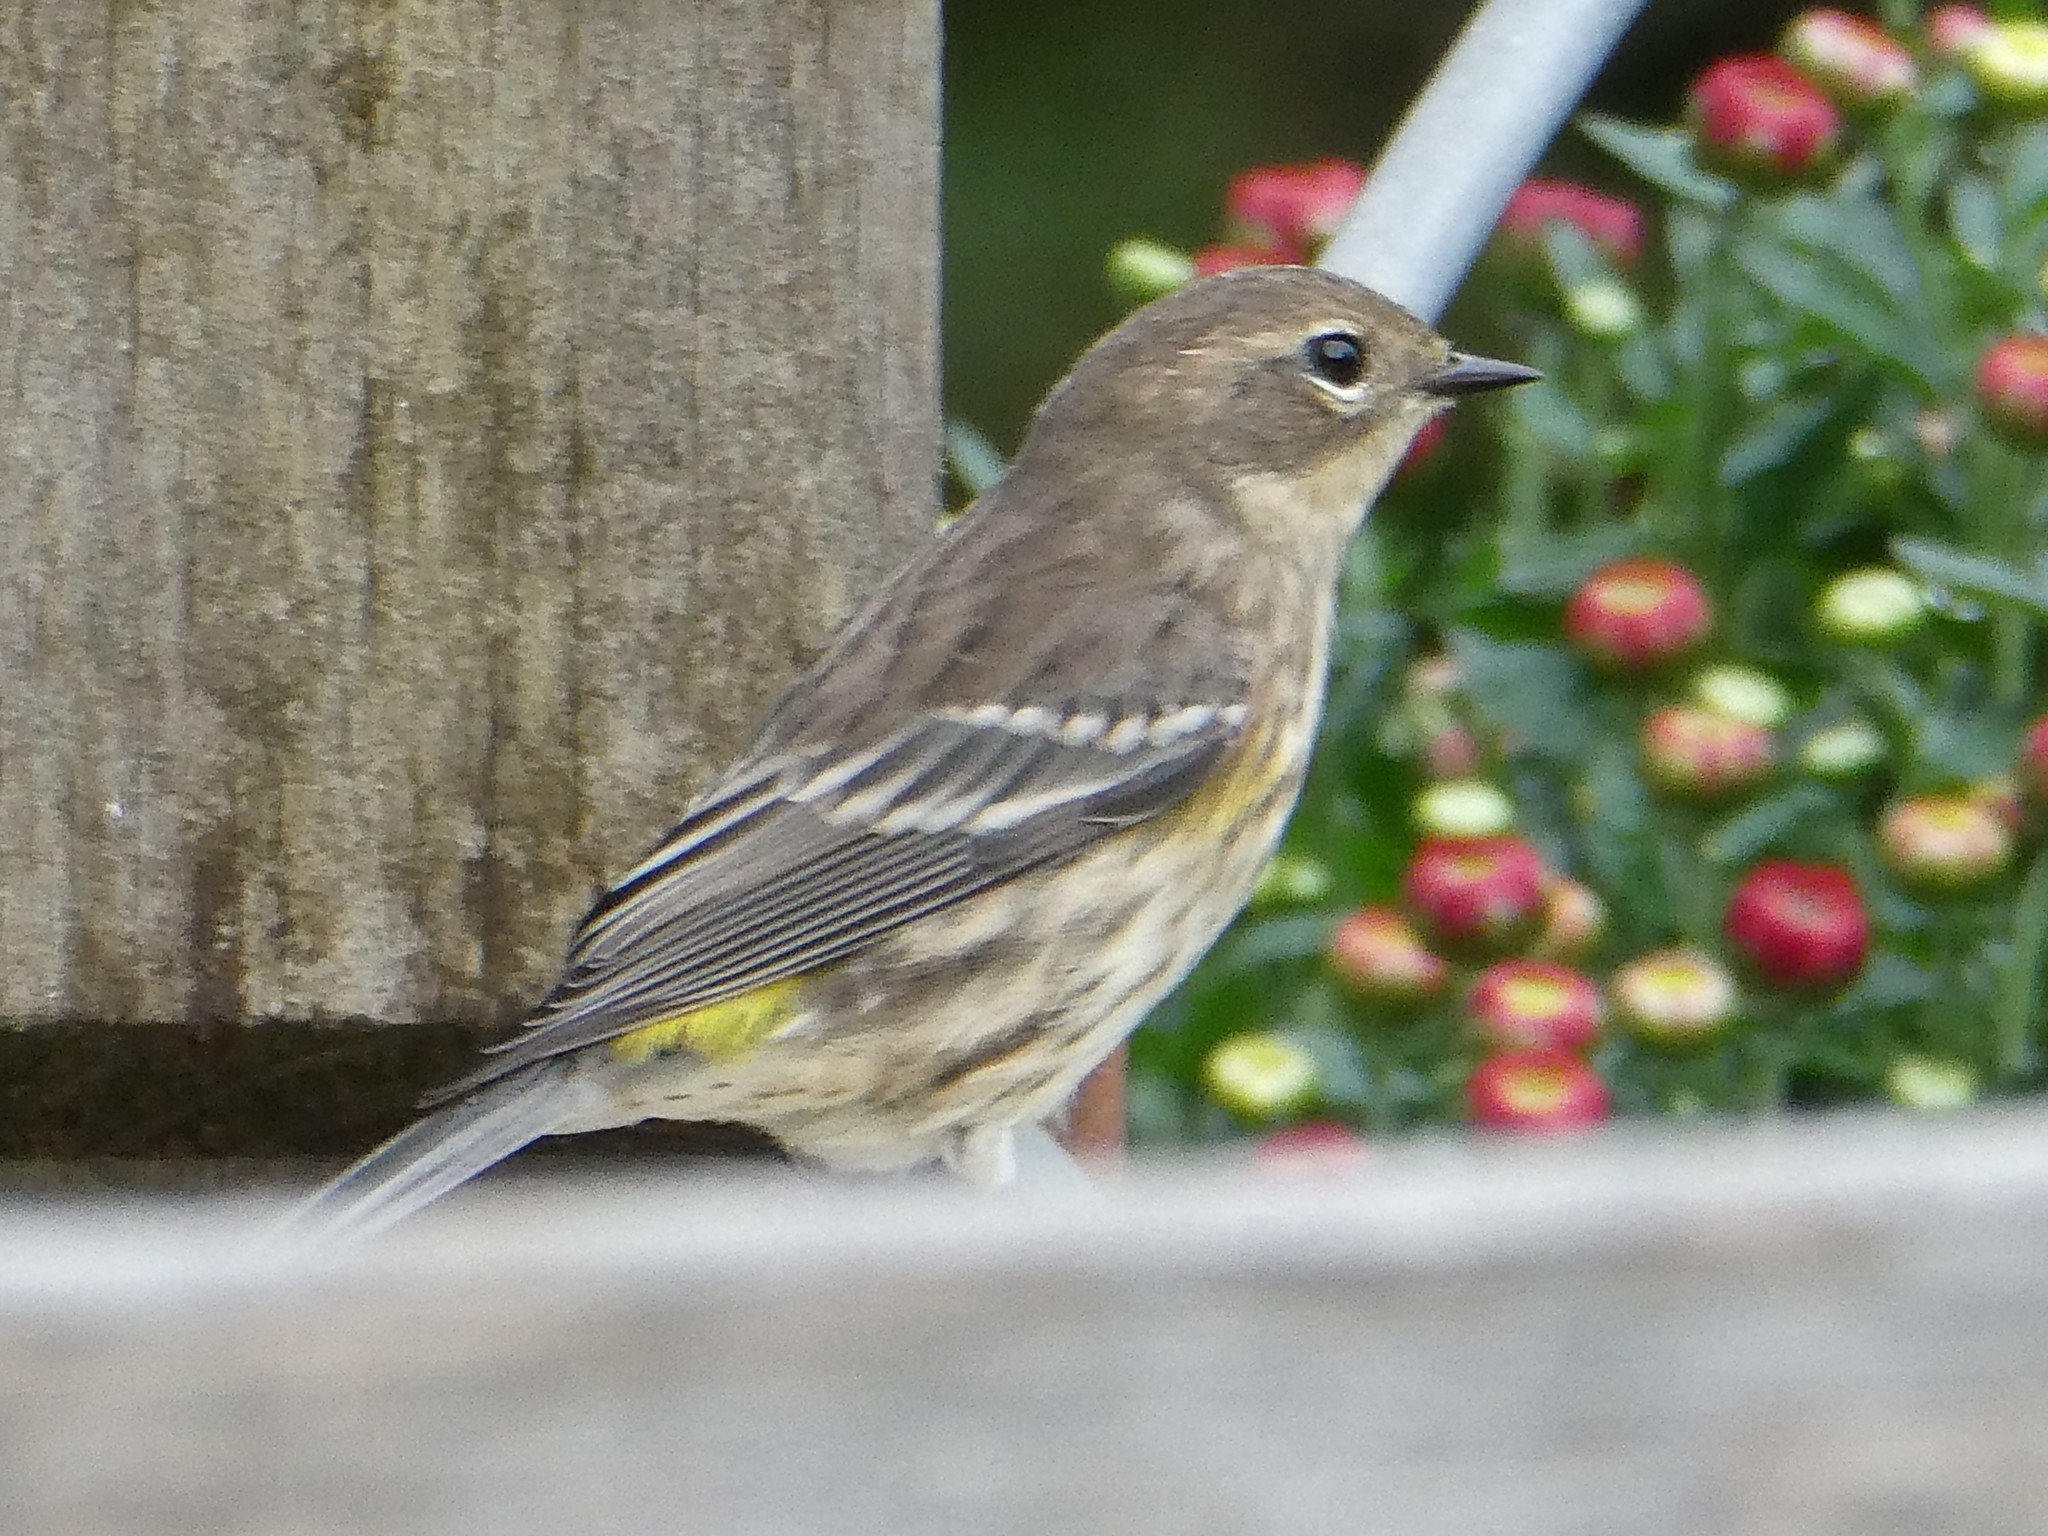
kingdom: Animalia
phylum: Chordata
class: Aves
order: Passeriformes
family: Parulidae
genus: Setophaga
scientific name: Setophaga coronata
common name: Myrtle warbler
